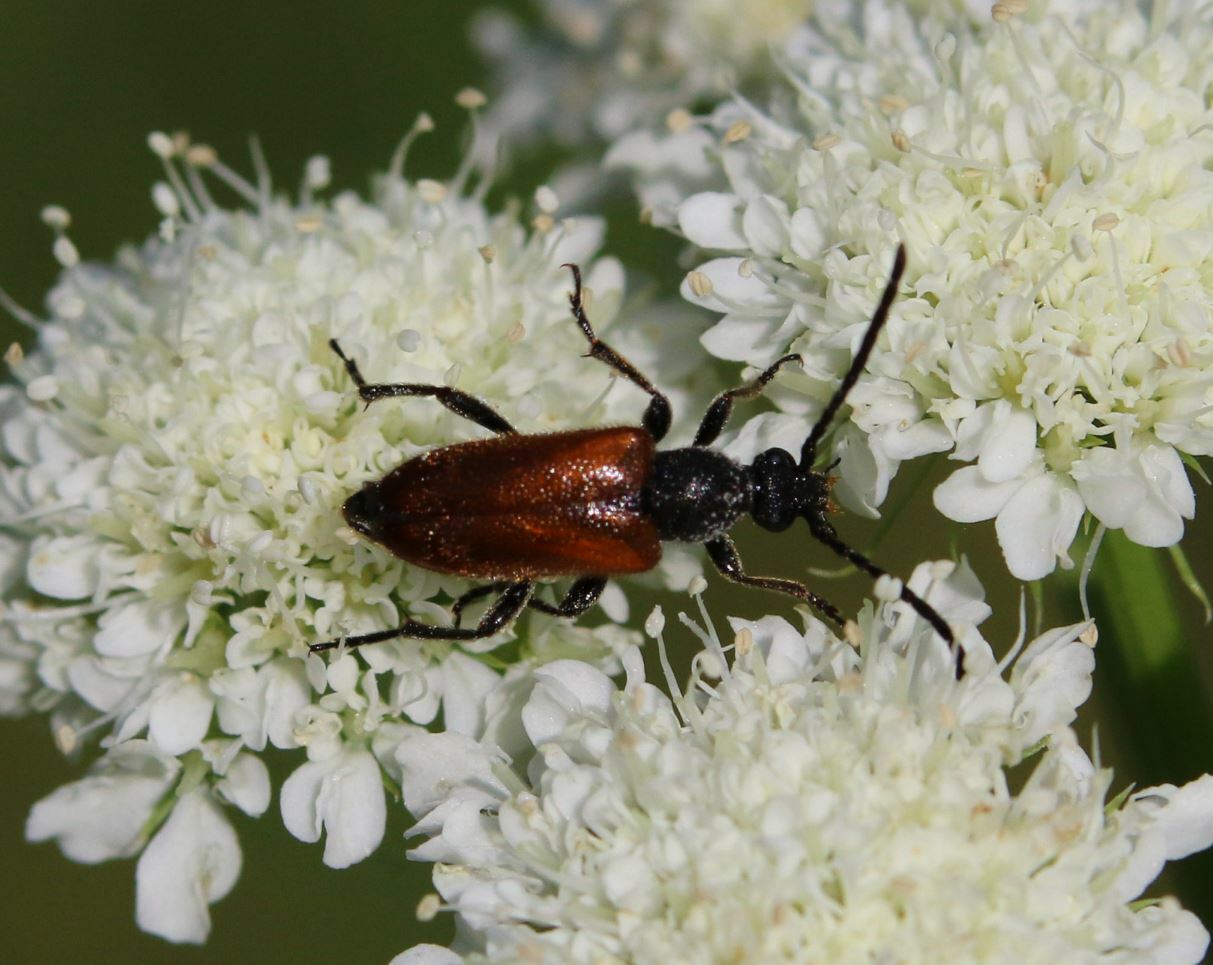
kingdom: Animalia
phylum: Arthropoda
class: Insecta
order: Coleoptera
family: Cerambycidae
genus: Pseudovadonia
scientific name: Pseudovadonia livida
